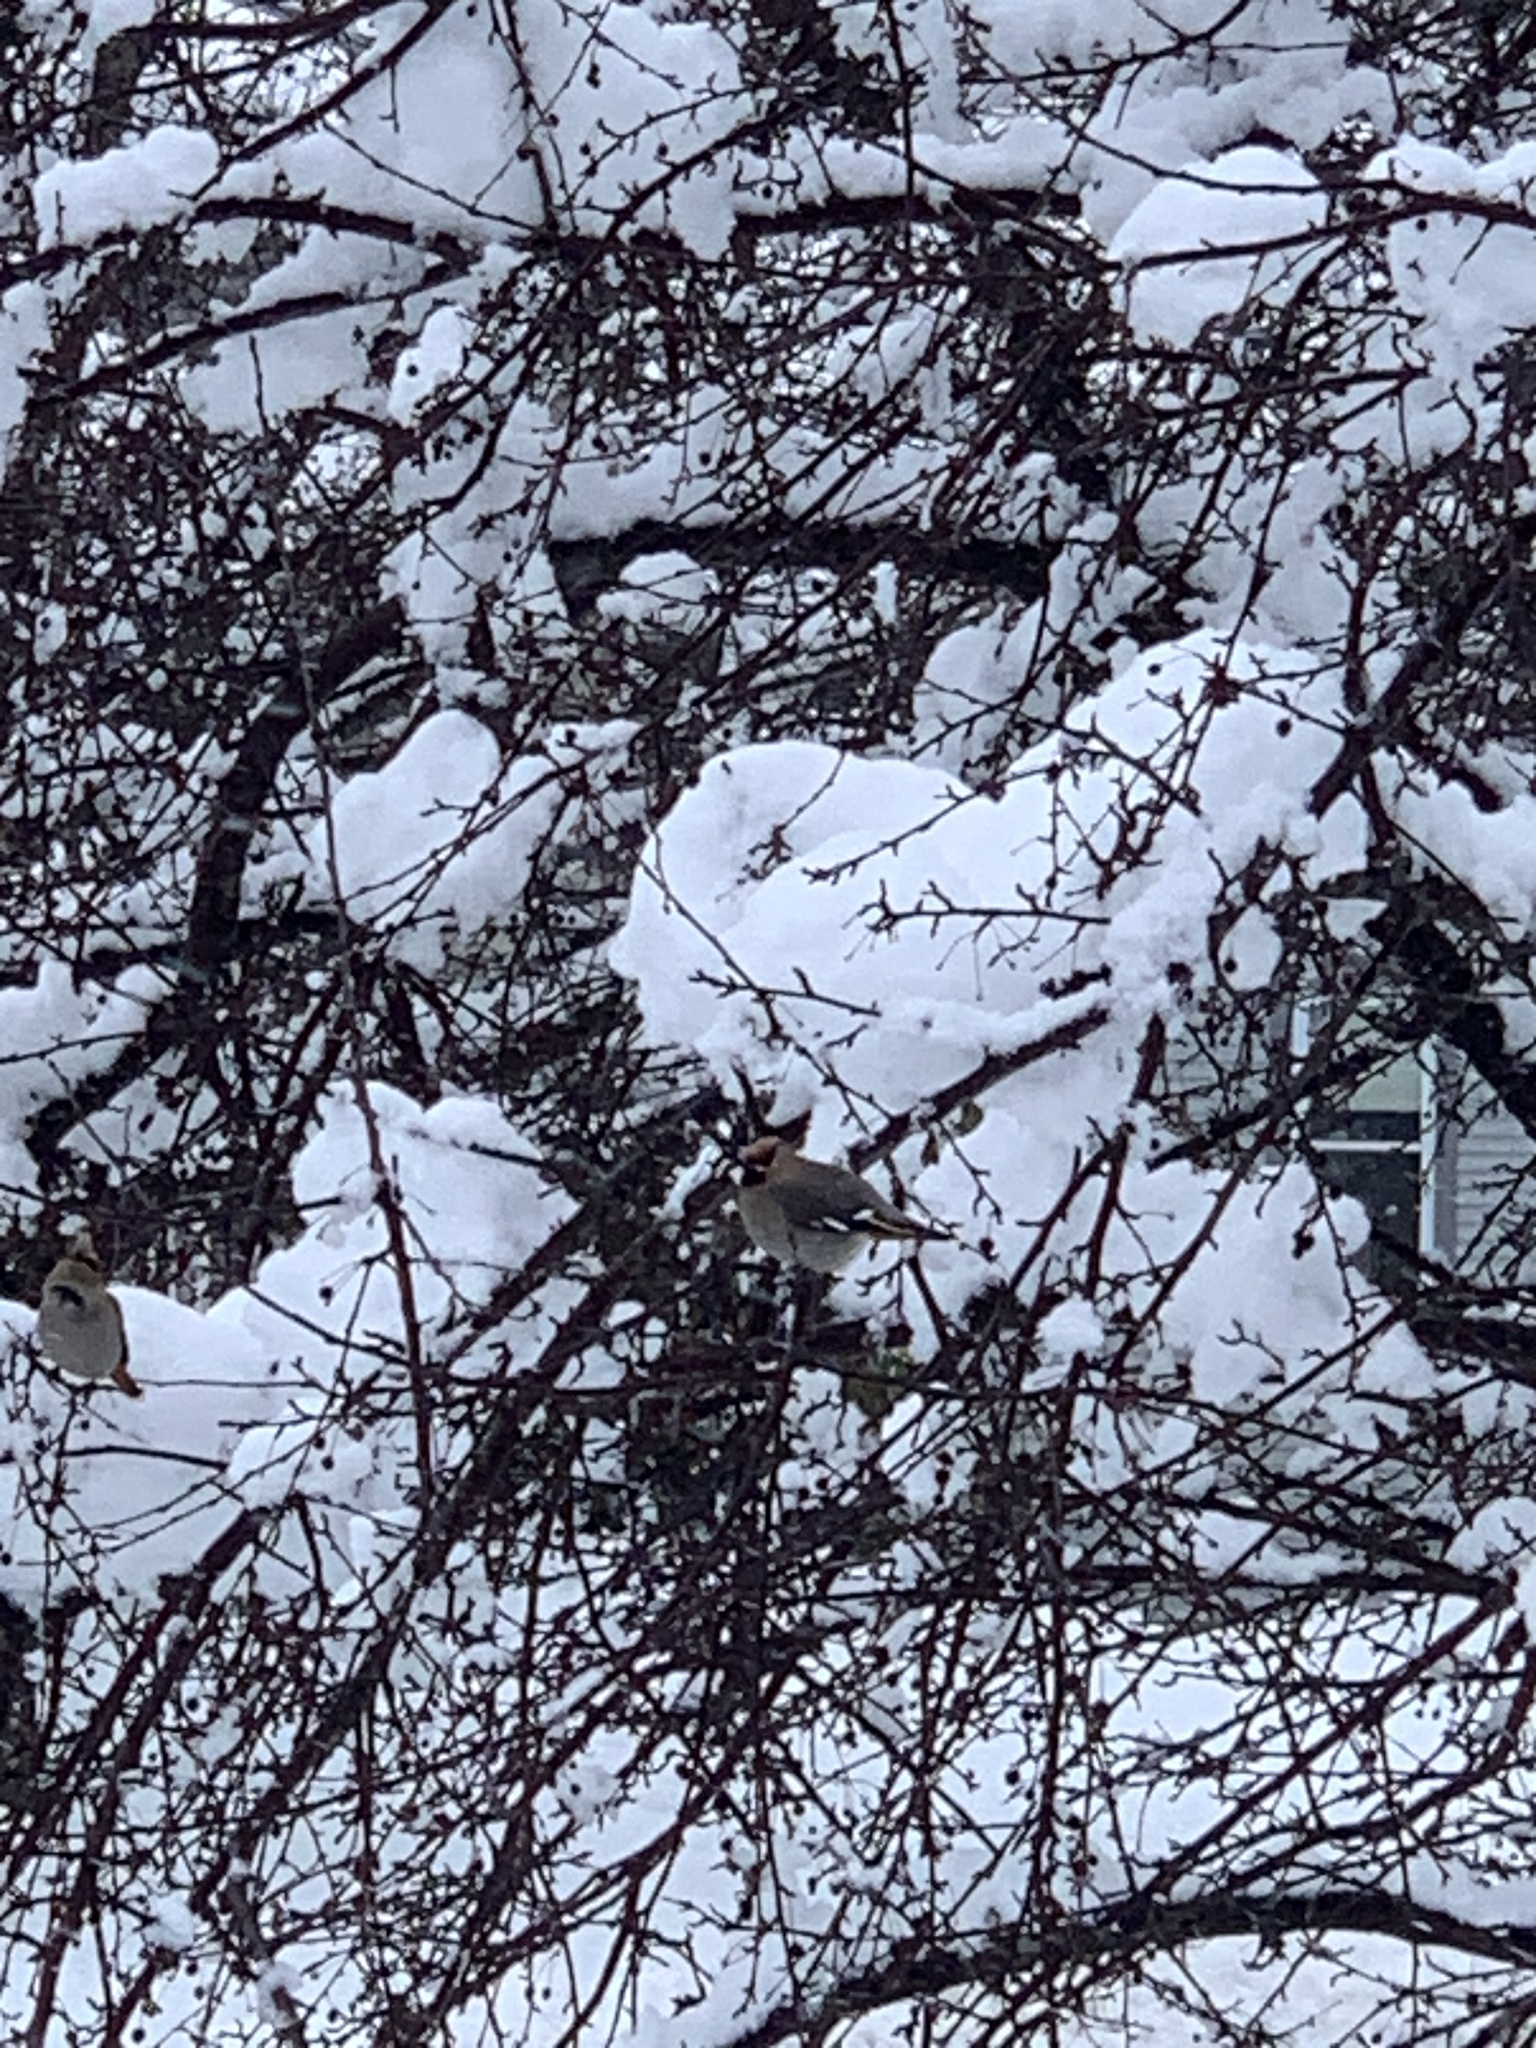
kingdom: Animalia
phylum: Chordata
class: Aves
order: Passeriformes
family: Bombycillidae
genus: Bombycilla
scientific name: Bombycilla garrulus
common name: Bohemian waxwing
